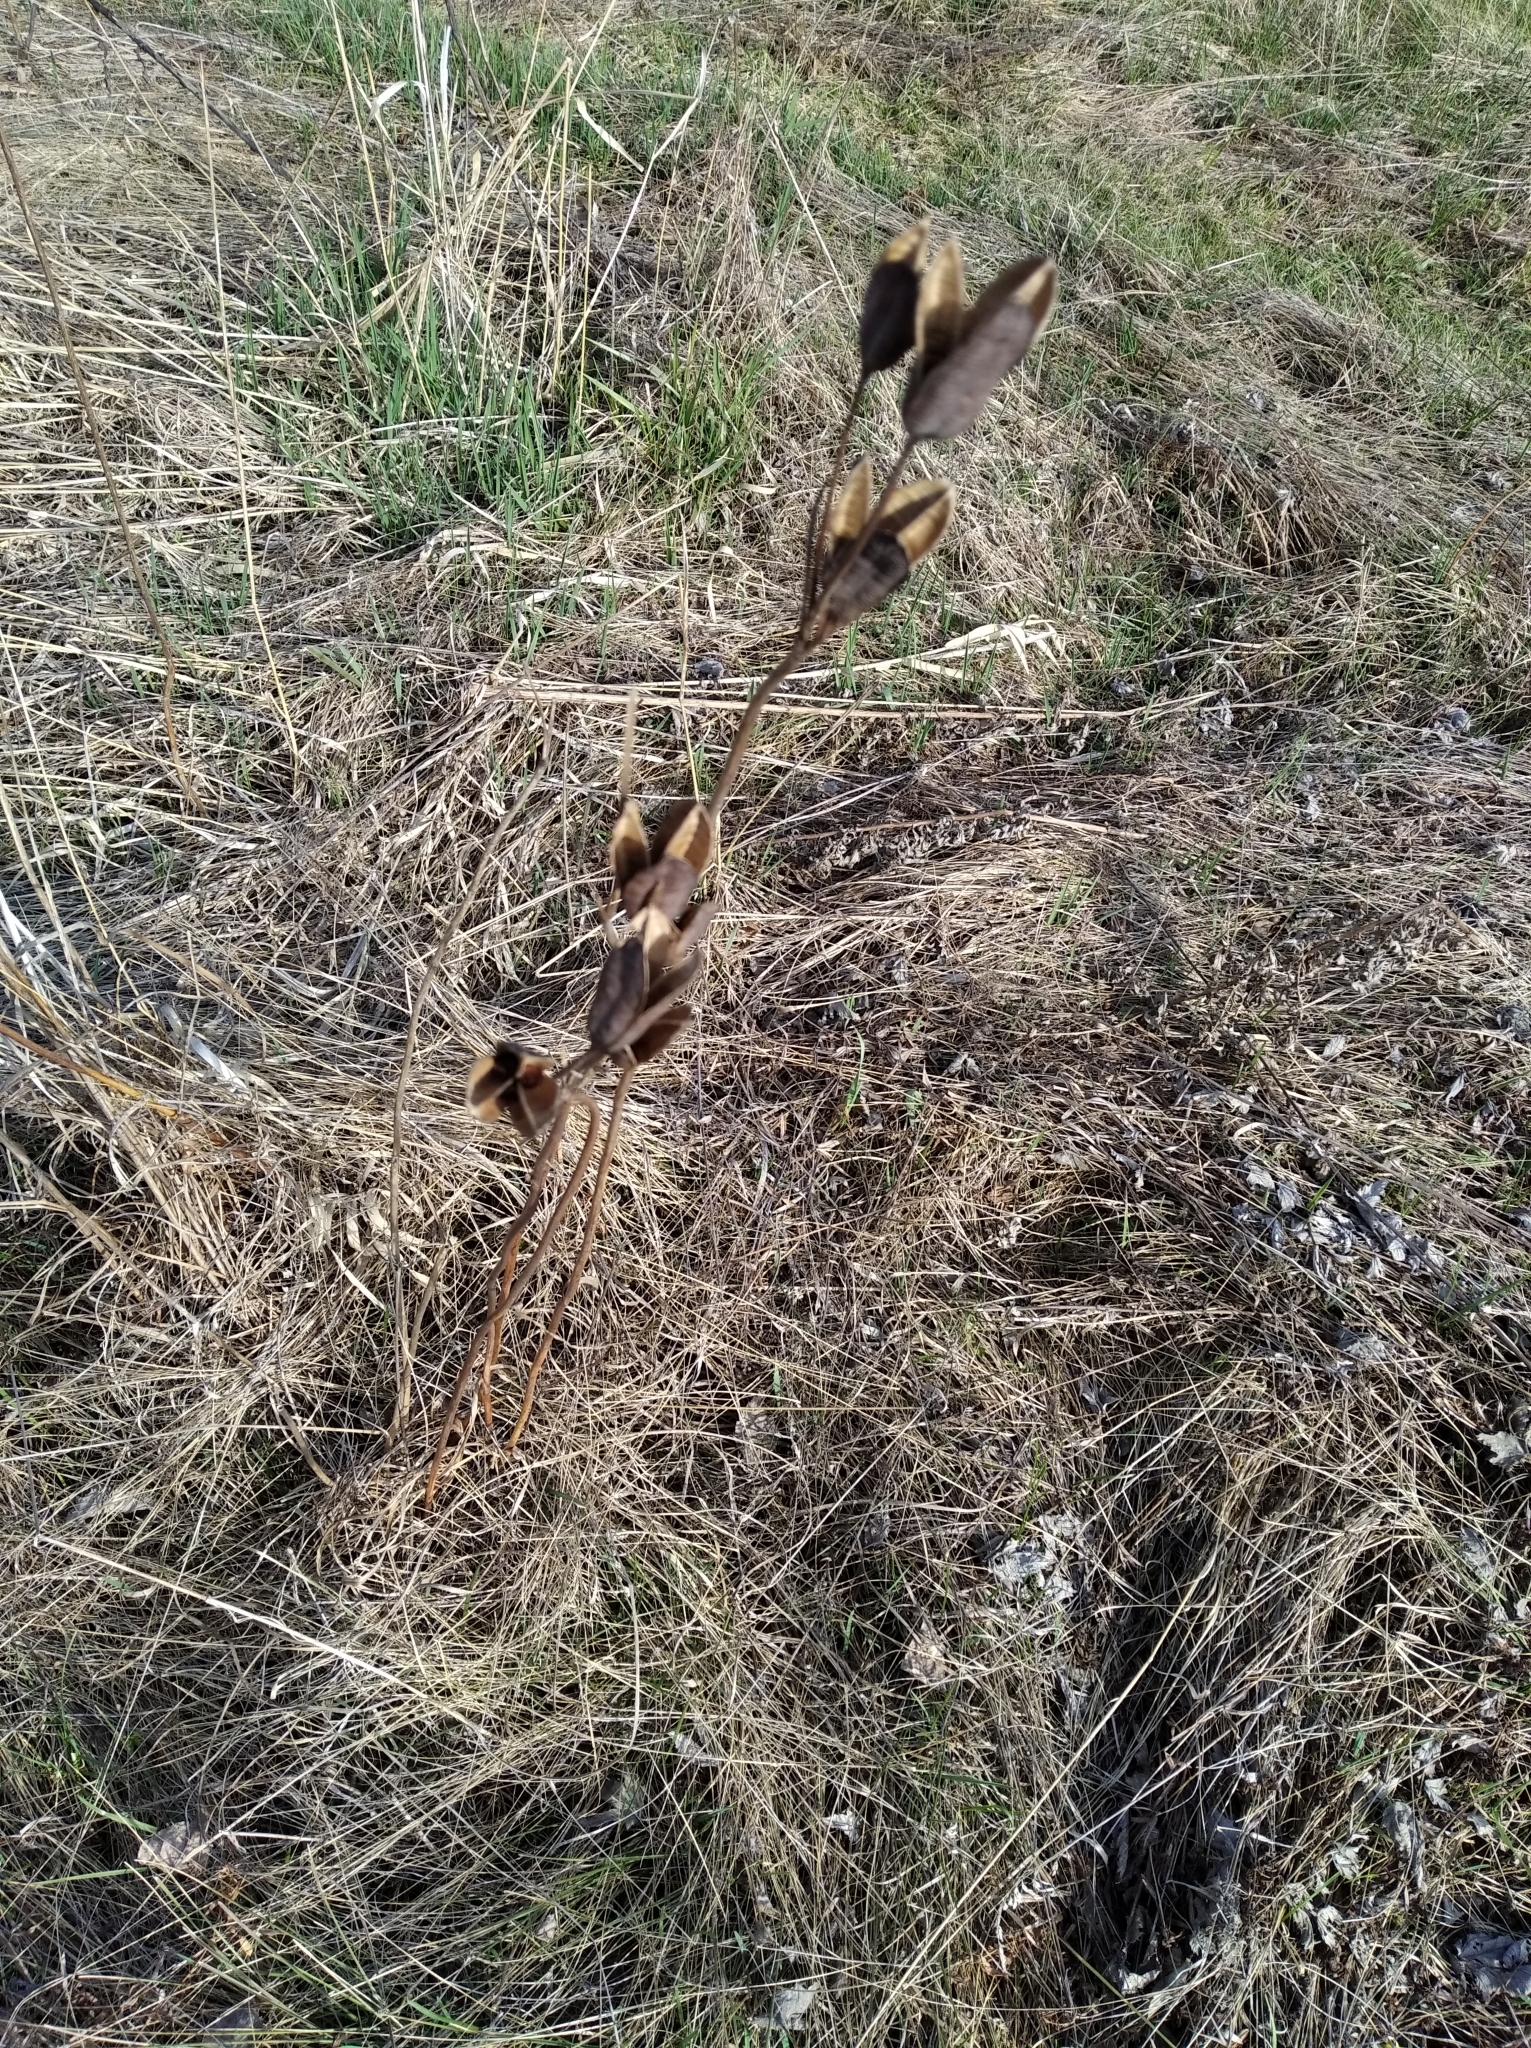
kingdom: Plantae
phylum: Tracheophyta
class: Liliopsida
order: Asparagales
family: Iridaceae
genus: Iris
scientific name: Iris sibirica
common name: Siberian iris
